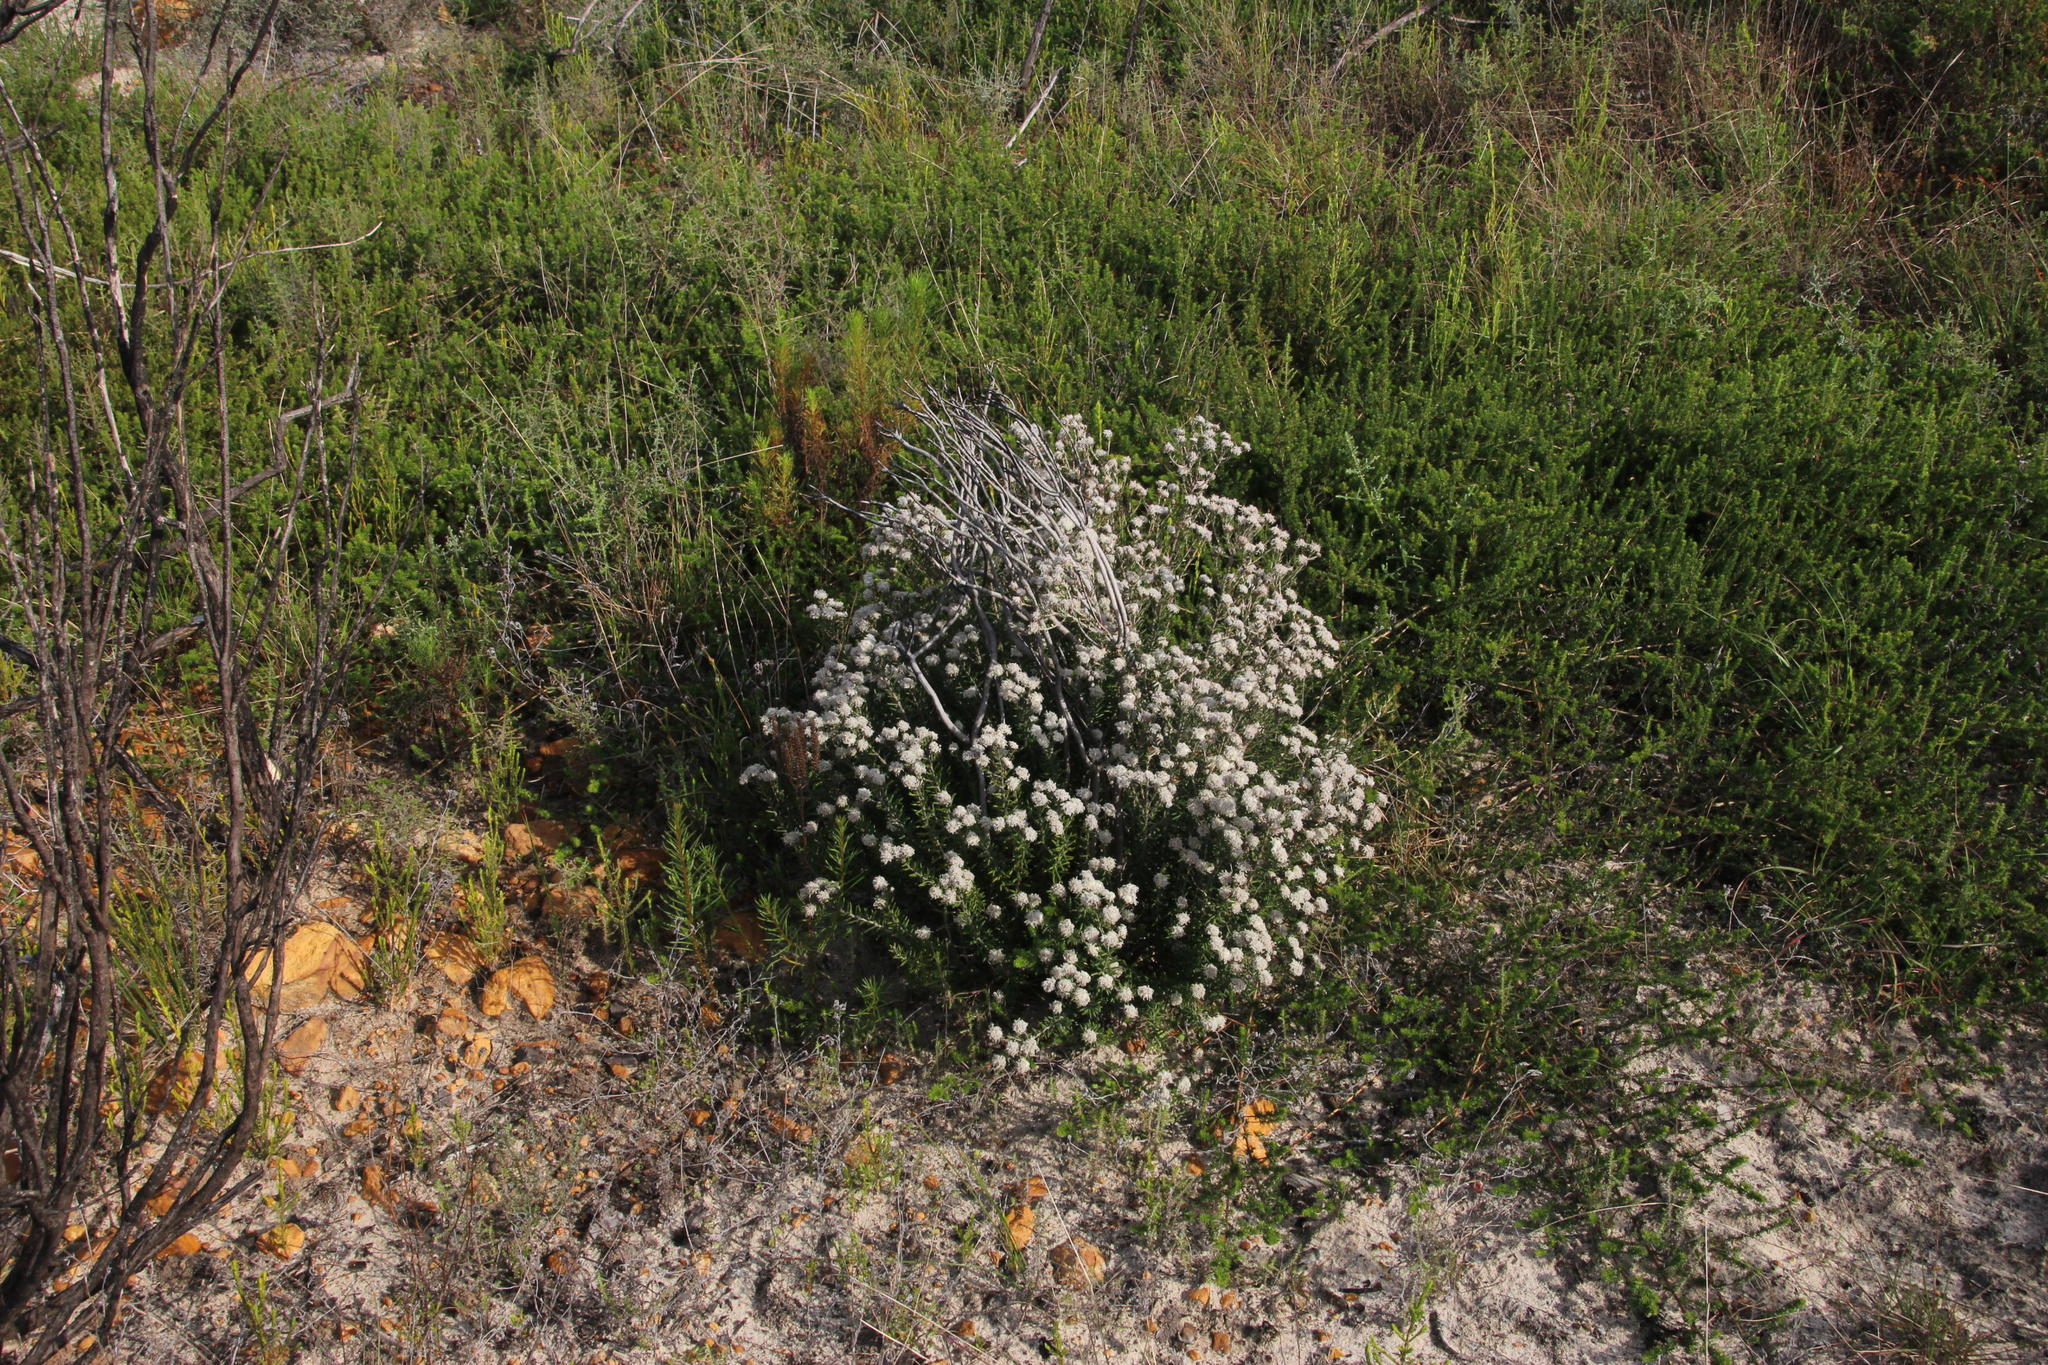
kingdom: Plantae
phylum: Tracheophyta
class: Magnoliopsida
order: Rosales
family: Rhamnaceae
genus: Trichocephalus
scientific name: Trichocephalus stipularis
